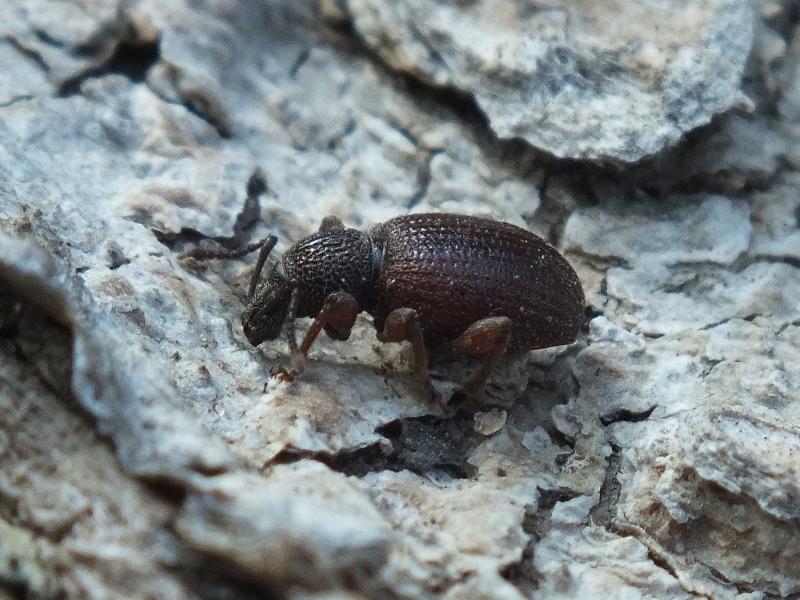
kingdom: Animalia
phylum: Arthropoda
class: Insecta
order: Coleoptera
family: Curculionidae
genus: Otiorhynchus
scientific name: Otiorhynchus ovatus
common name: Strawberry root weevil
